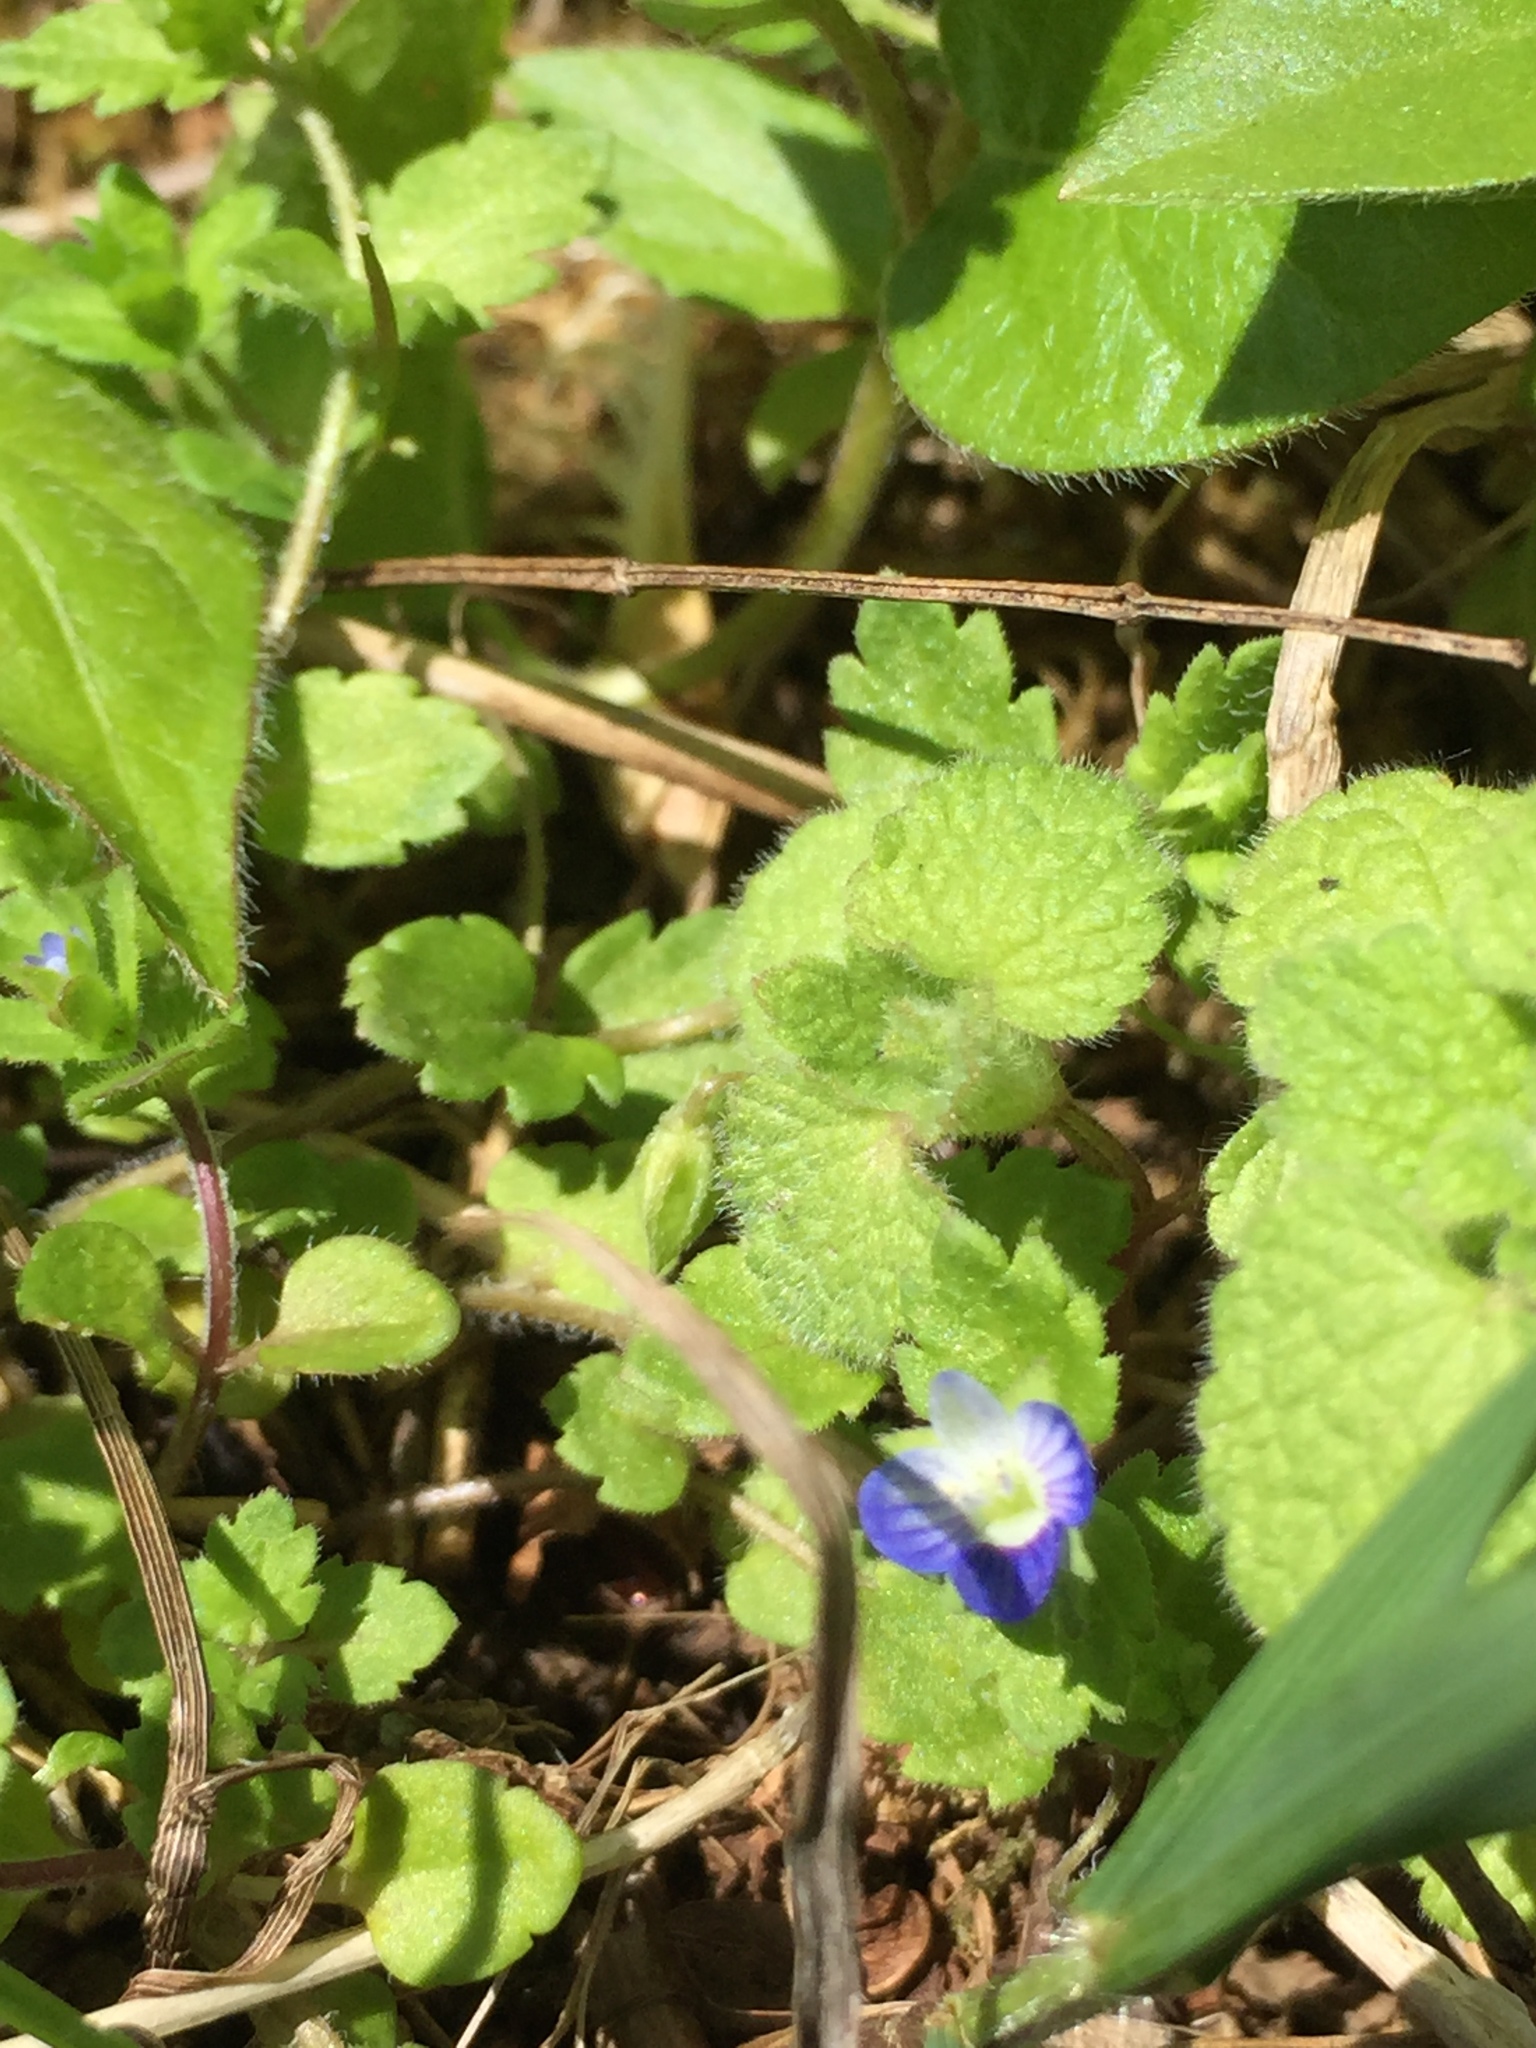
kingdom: Plantae
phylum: Tracheophyta
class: Magnoliopsida
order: Lamiales
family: Plantaginaceae
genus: Veronica
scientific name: Veronica persica
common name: Common field-speedwell
